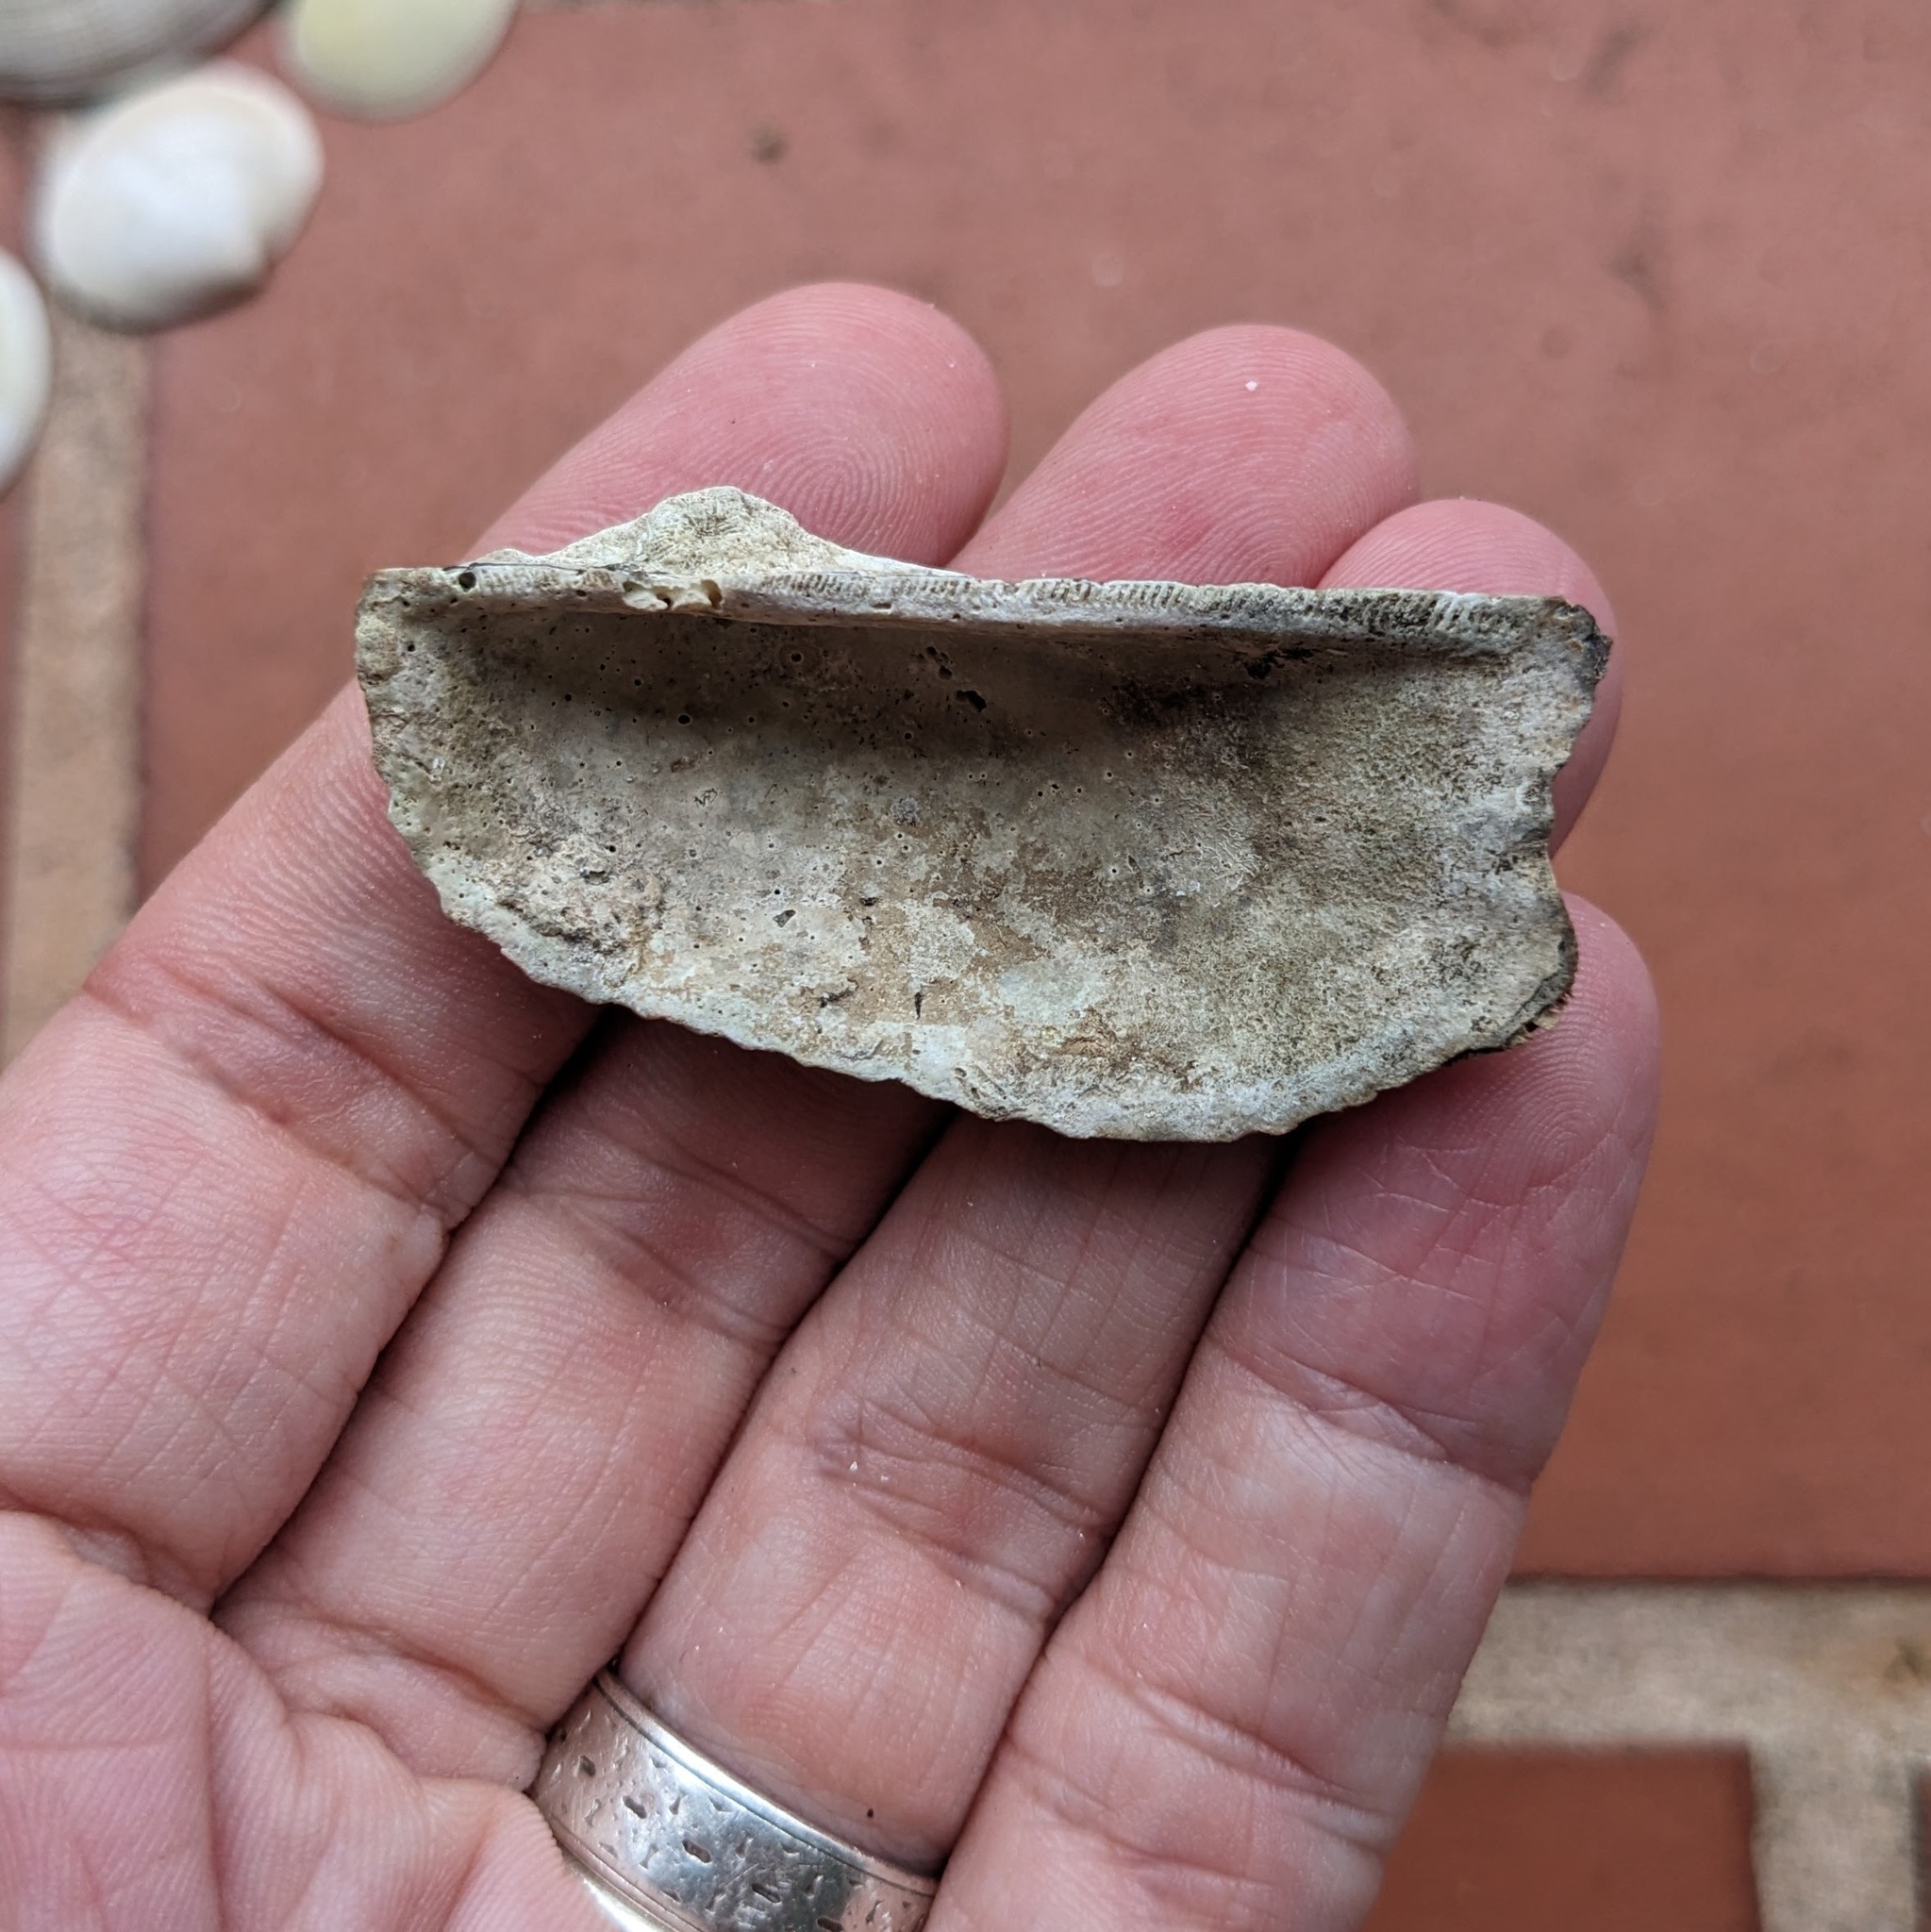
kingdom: Animalia
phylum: Mollusca
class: Bivalvia
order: Arcida
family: Arcidae
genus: Arca
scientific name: Arca zebra
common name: Atlantic turkey wing
